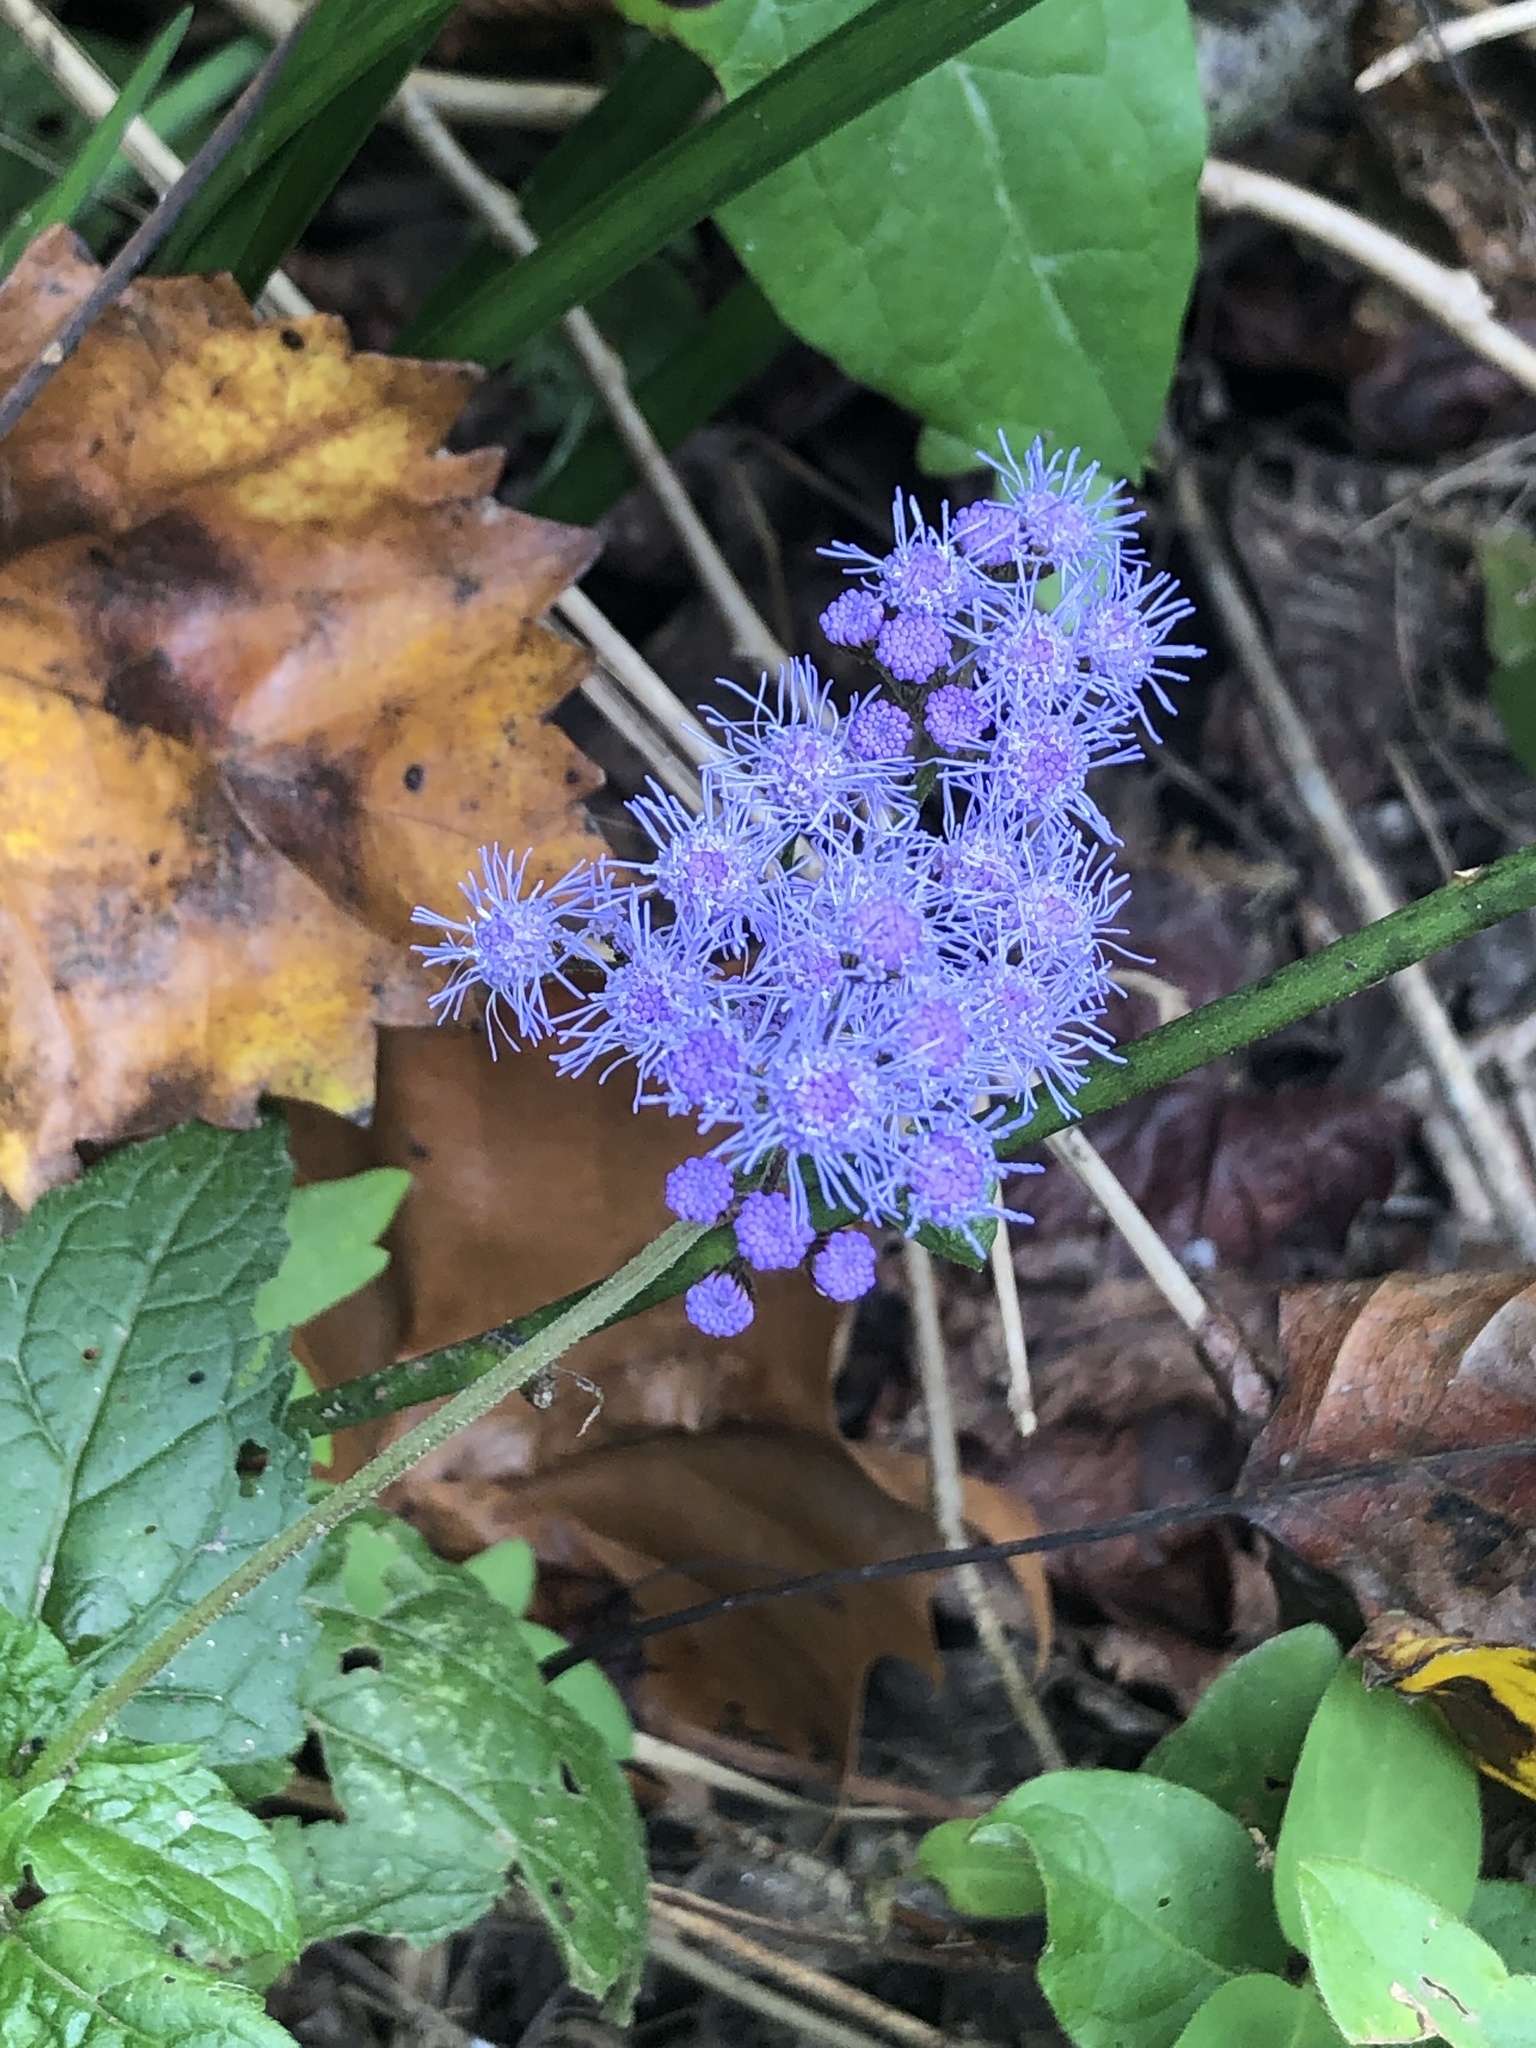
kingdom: Plantae
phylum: Tracheophyta
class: Magnoliopsida
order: Asterales
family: Asteraceae
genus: Conoclinium
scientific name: Conoclinium coelestinum
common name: Blue mistflower
